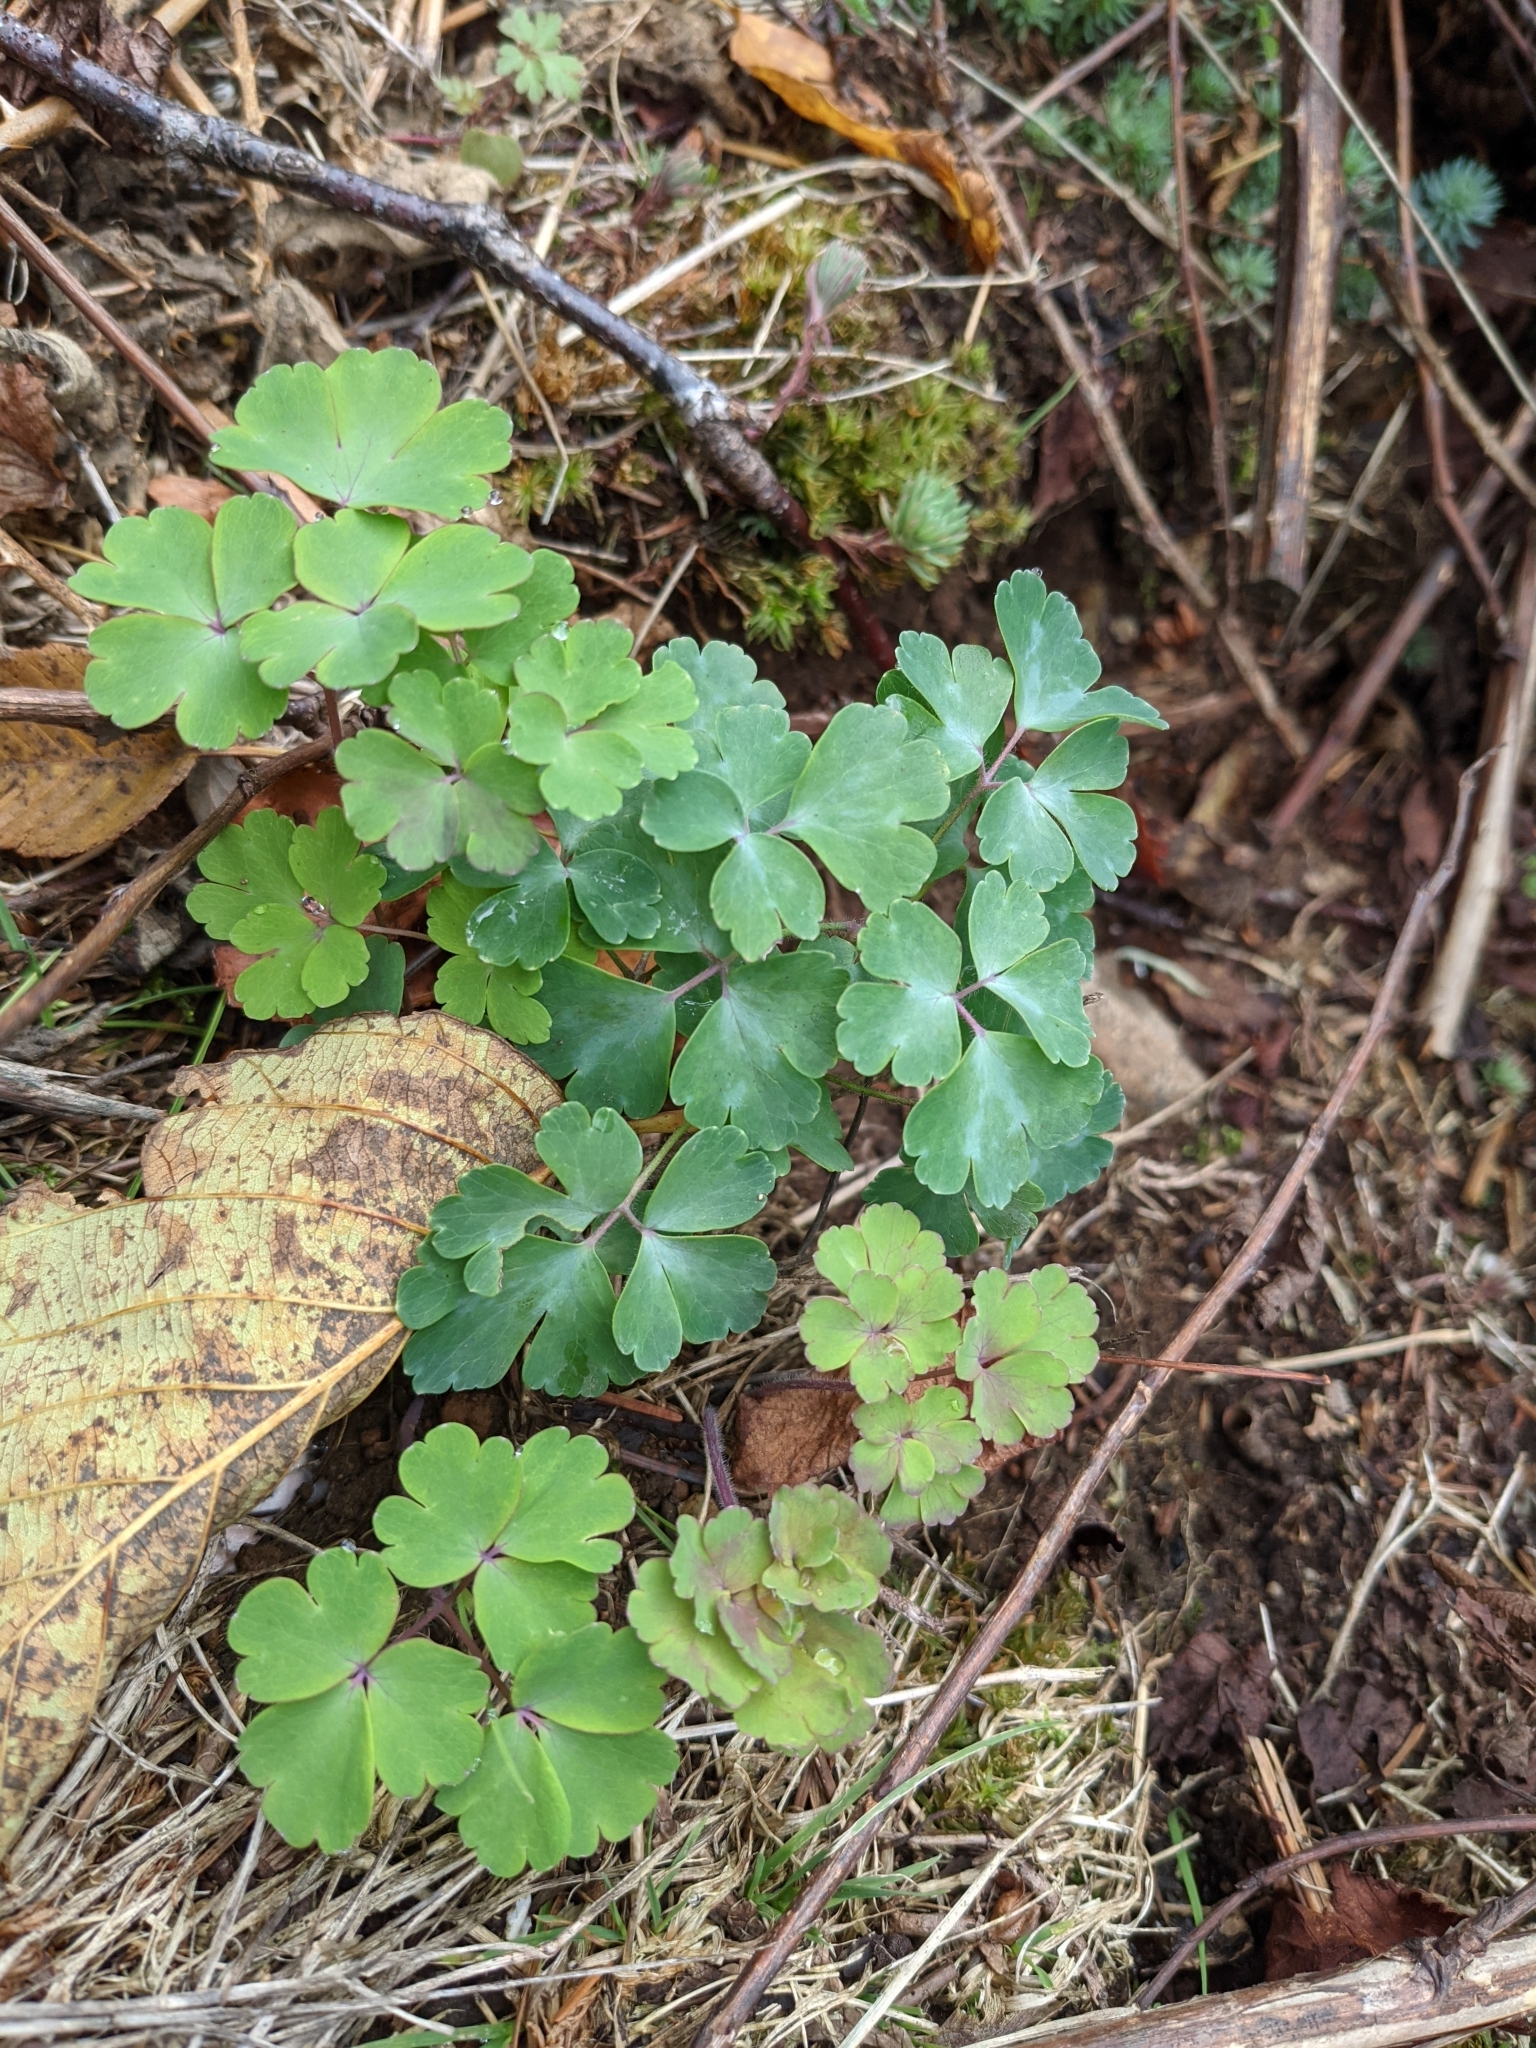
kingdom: Plantae
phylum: Tracheophyta
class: Magnoliopsida
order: Ranunculales
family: Ranunculaceae
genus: Aquilegia
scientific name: Aquilegia formosa
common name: Sitka columbine
